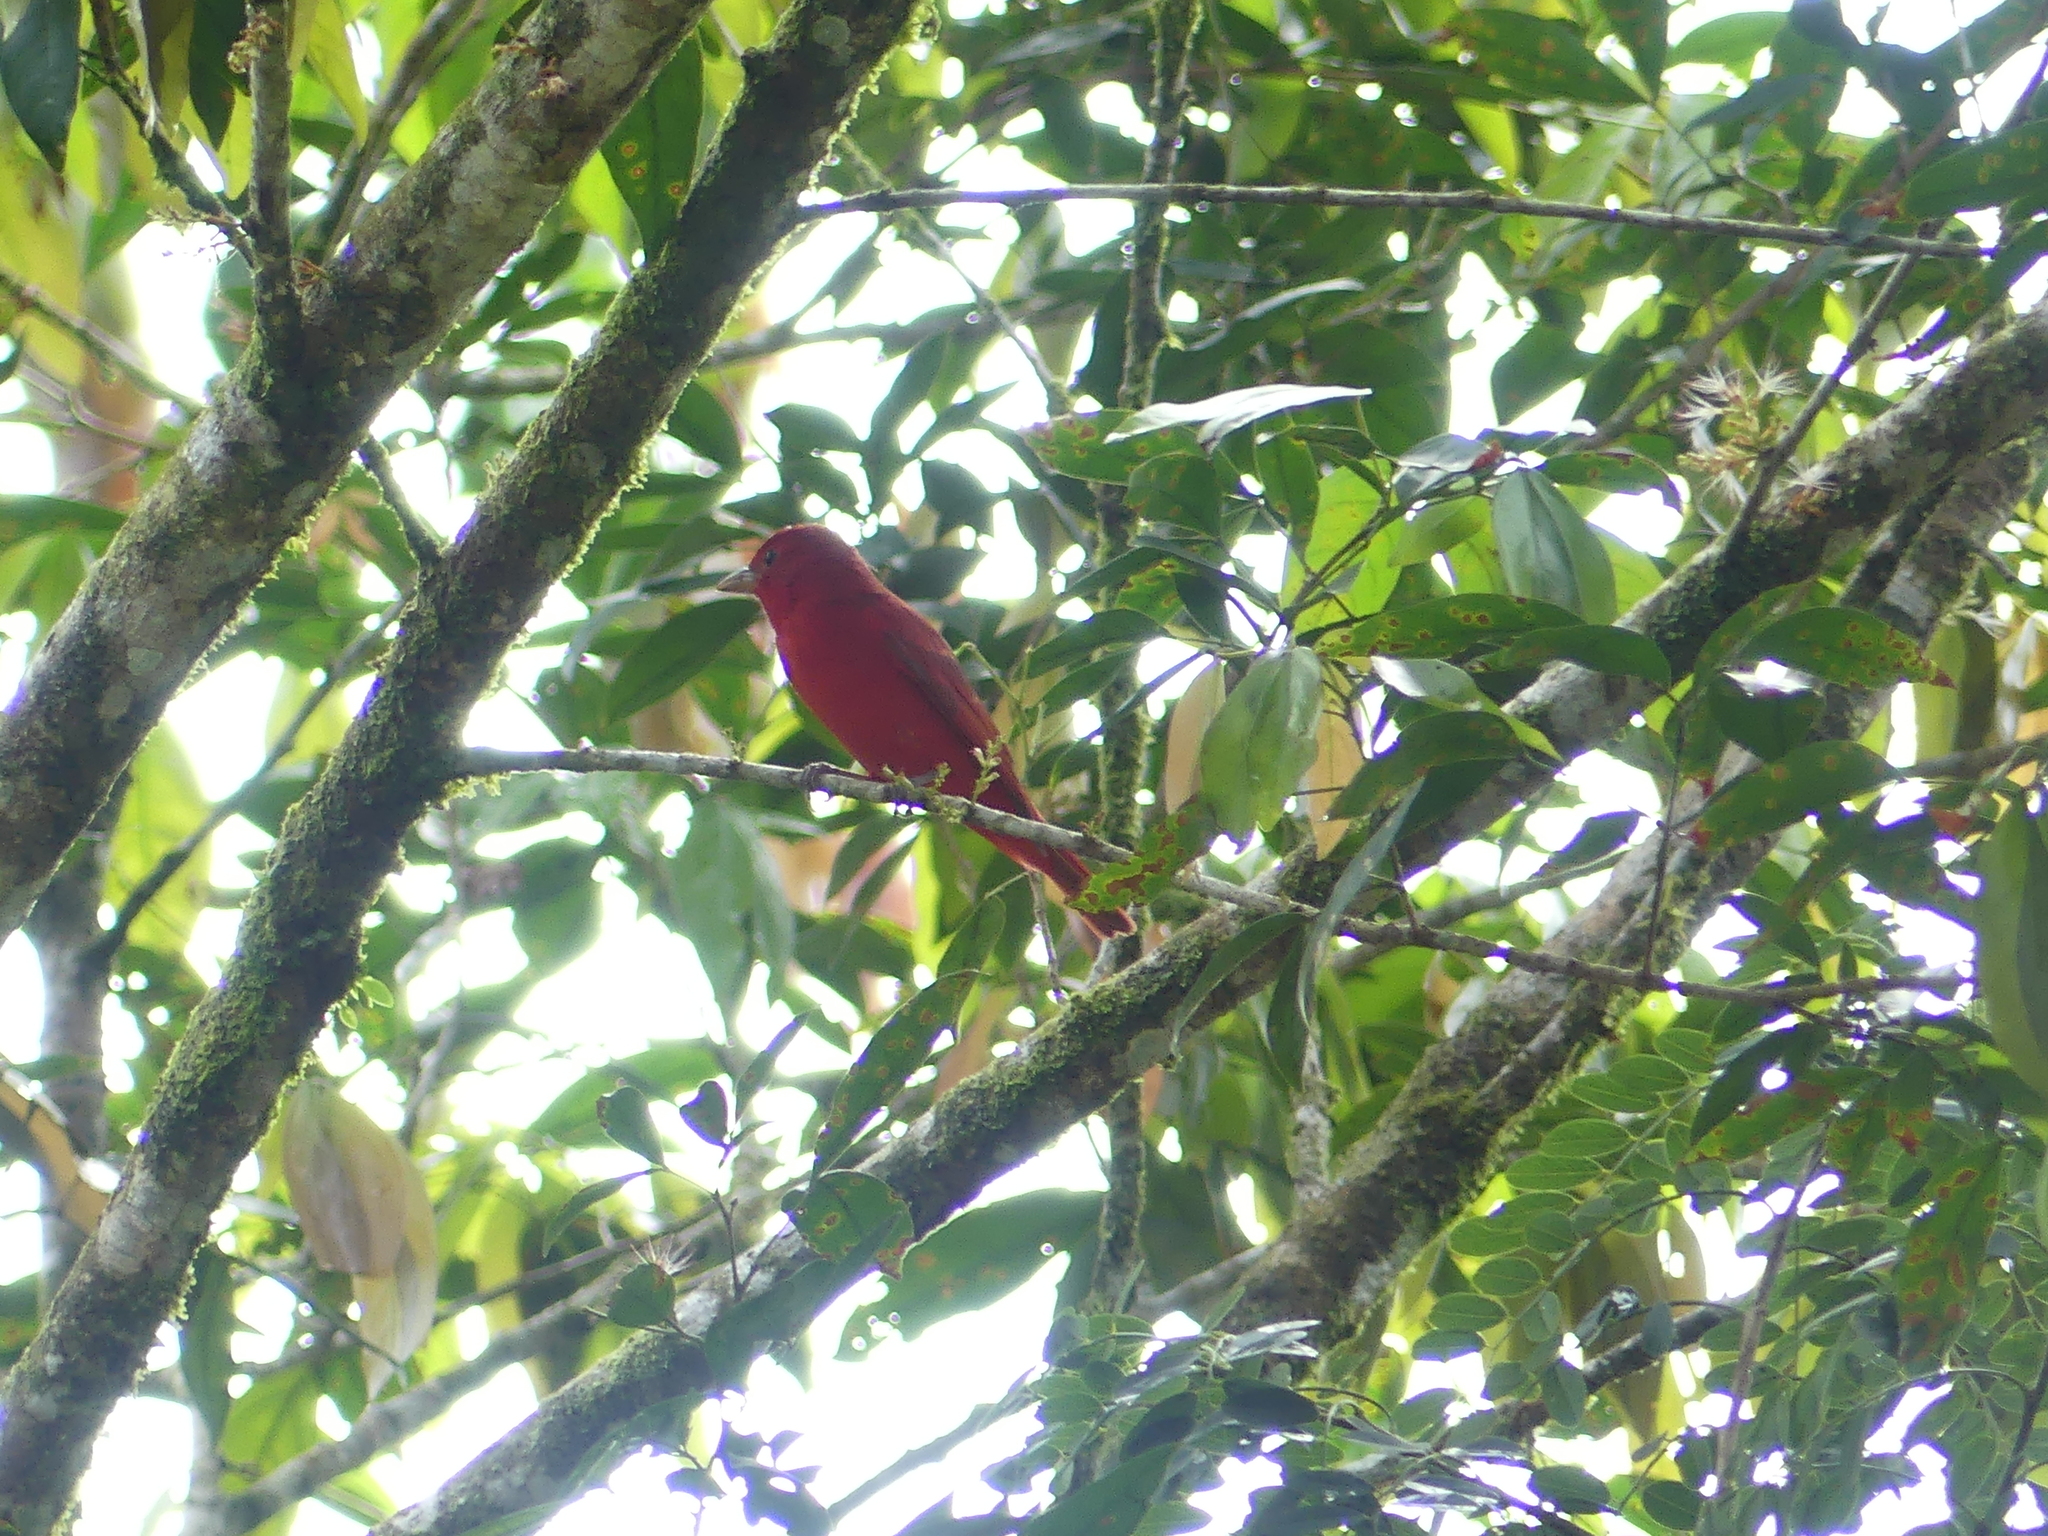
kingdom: Animalia
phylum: Chordata
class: Aves
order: Passeriformes
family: Cardinalidae
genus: Piranga
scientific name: Piranga rubra
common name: Summer tanager
